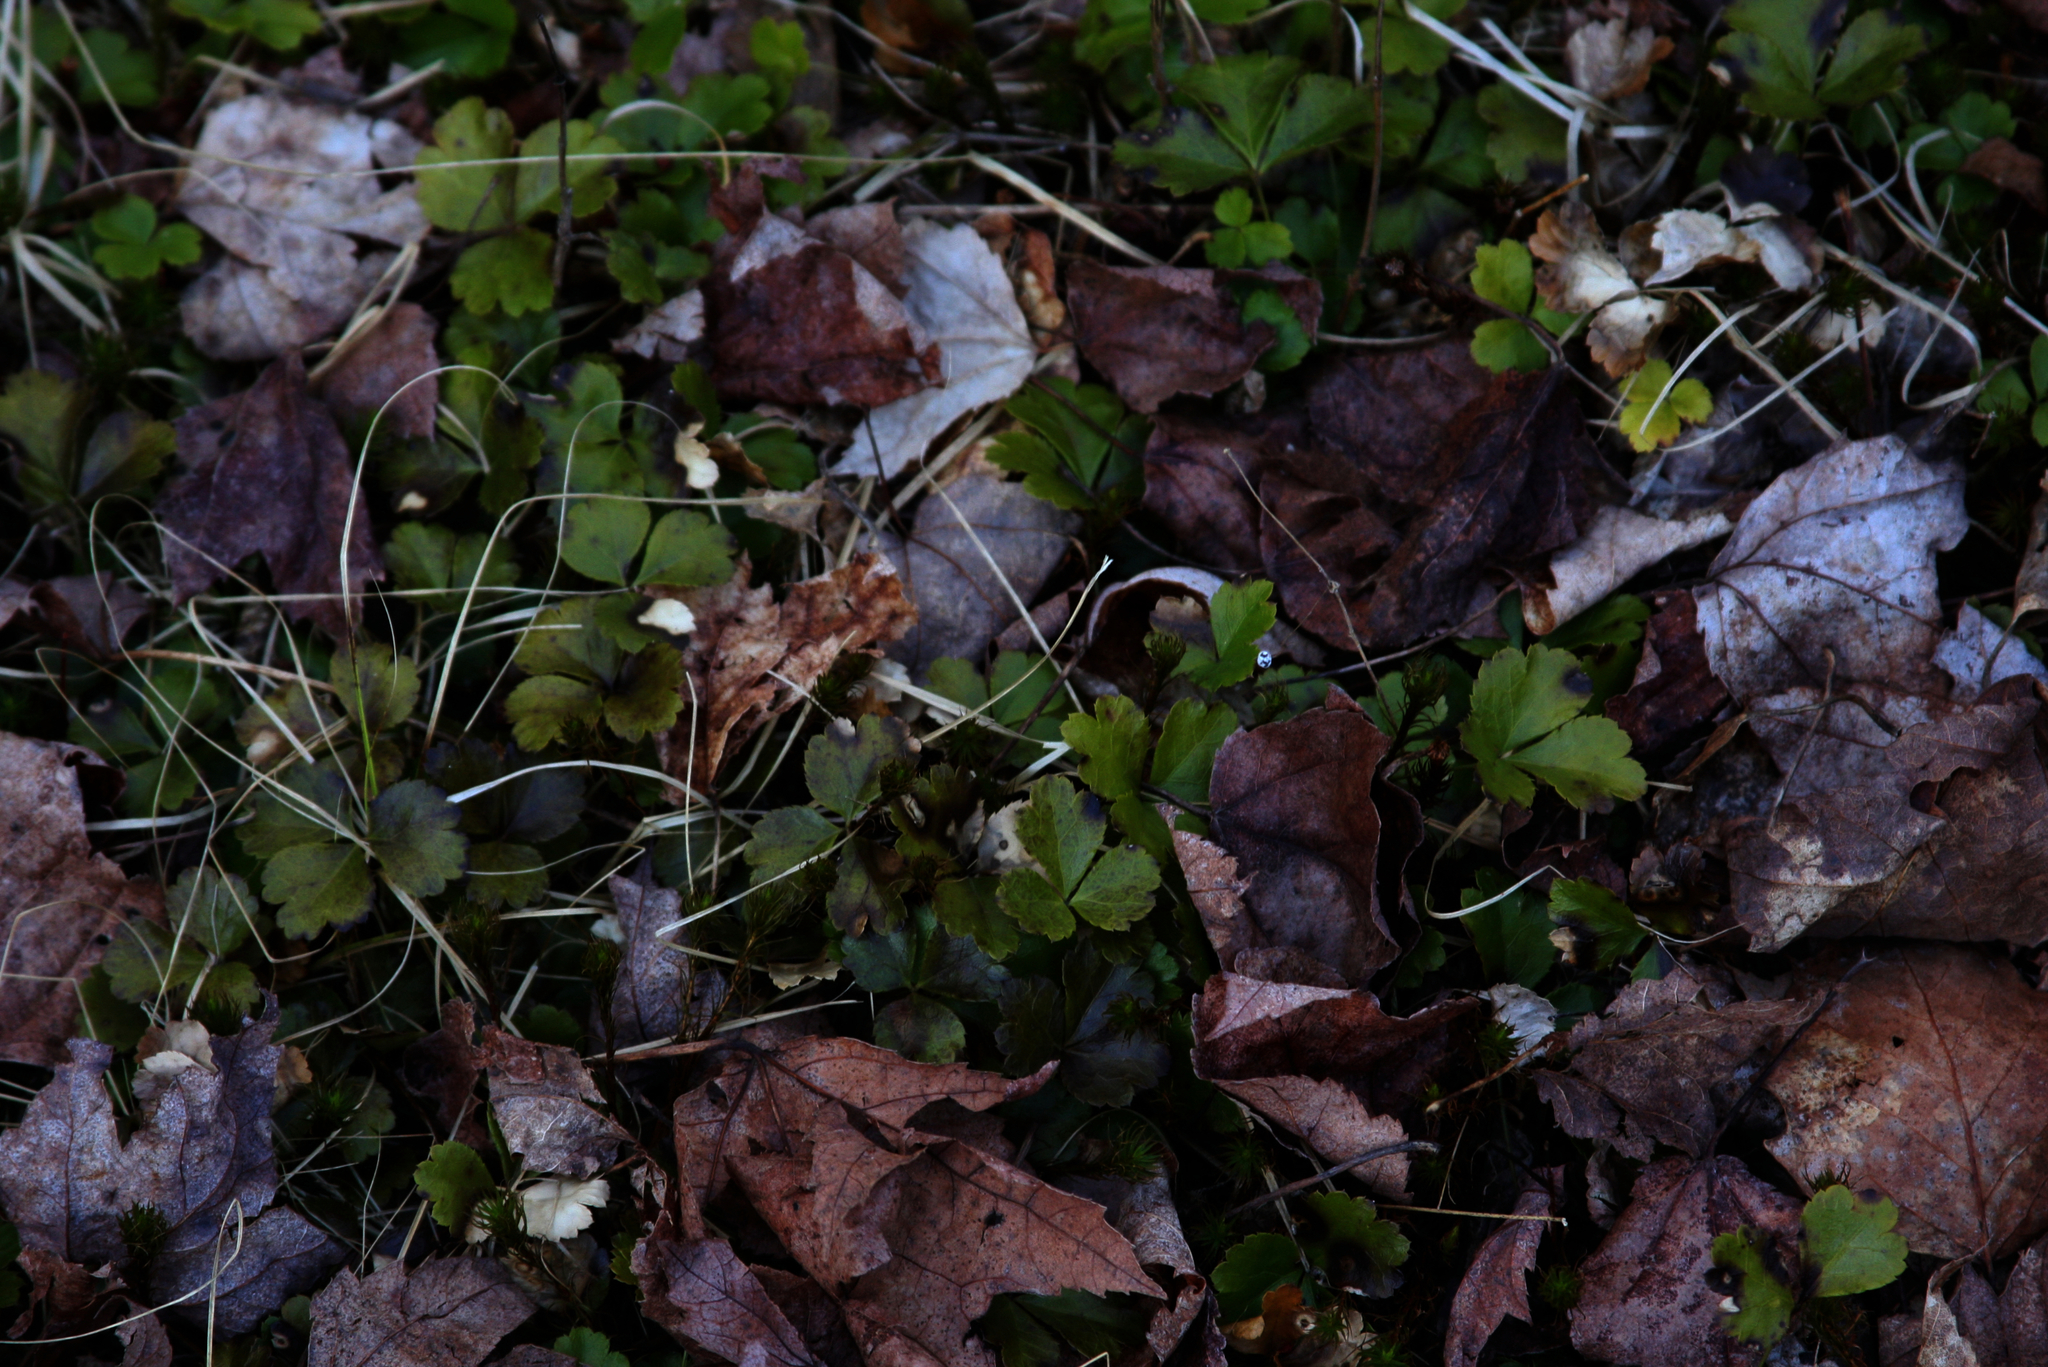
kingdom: Plantae
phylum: Tracheophyta
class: Magnoliopsida
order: Ranunculales
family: Ranunculaceae
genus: Coptis
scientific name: Coptis trifolia
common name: Canker-root
